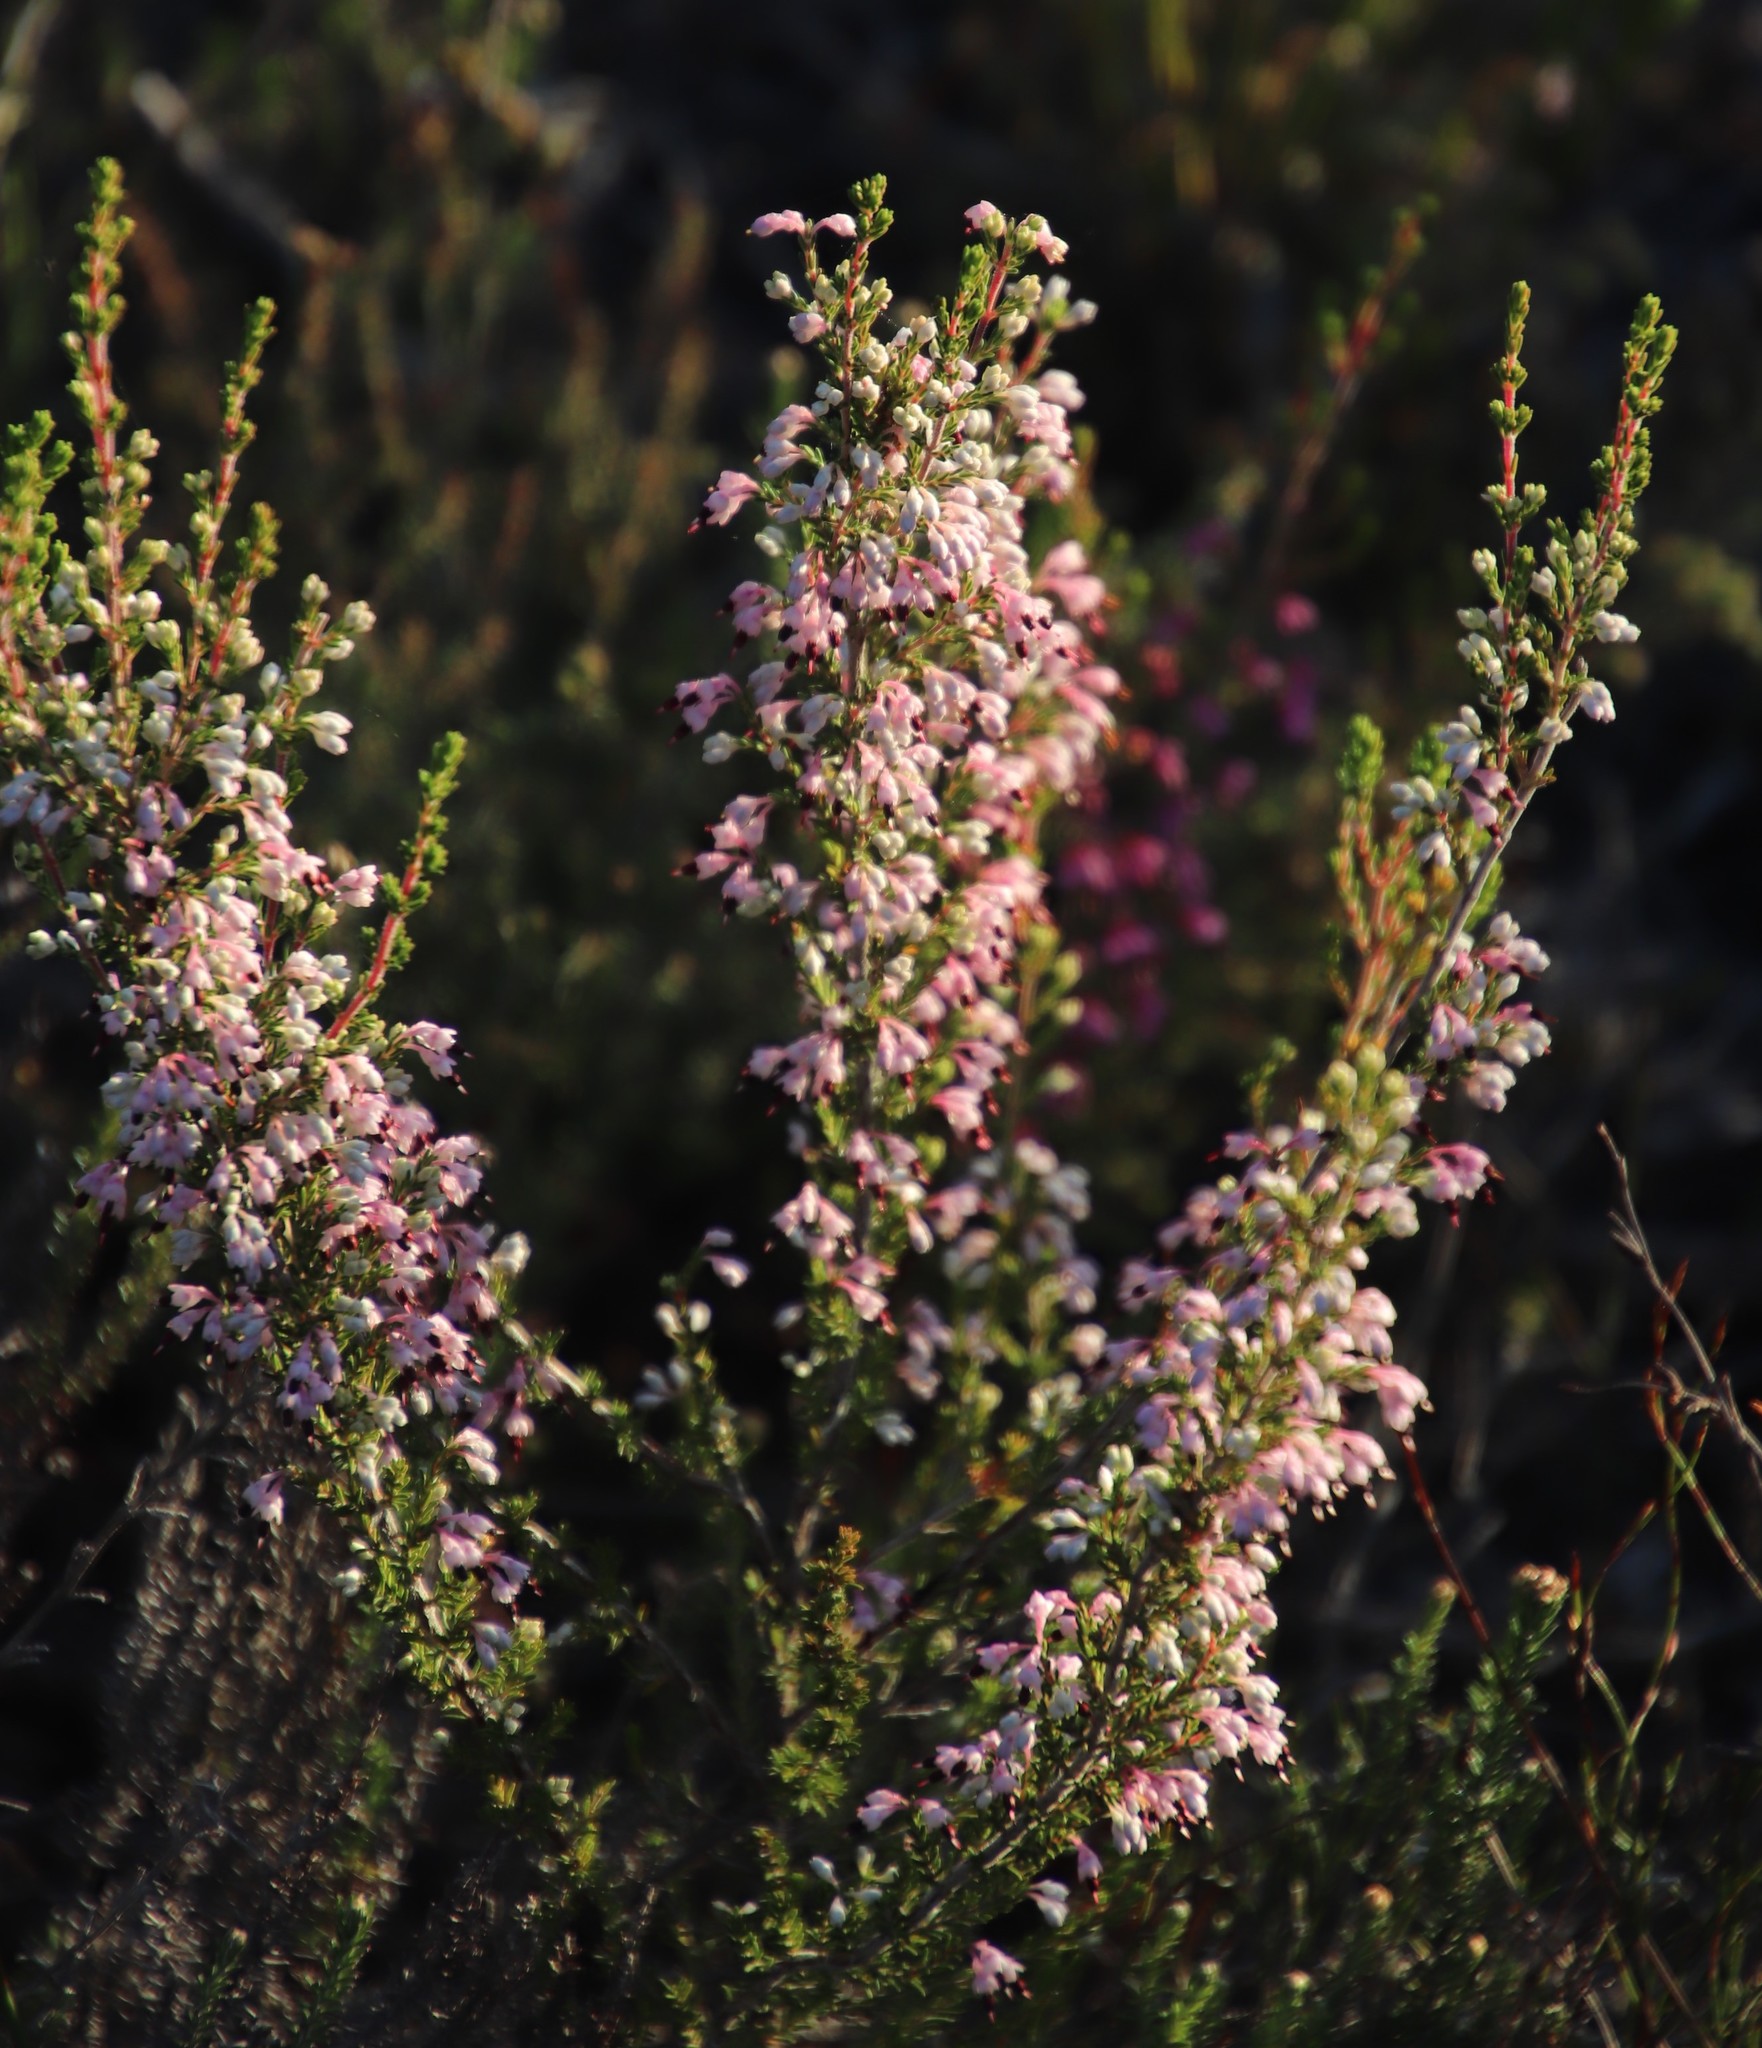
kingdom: Plantae
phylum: Tracheophyta
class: Magnoliopsida
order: Ericales
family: Ericaceae
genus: Erica
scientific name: Erica placentiflora
